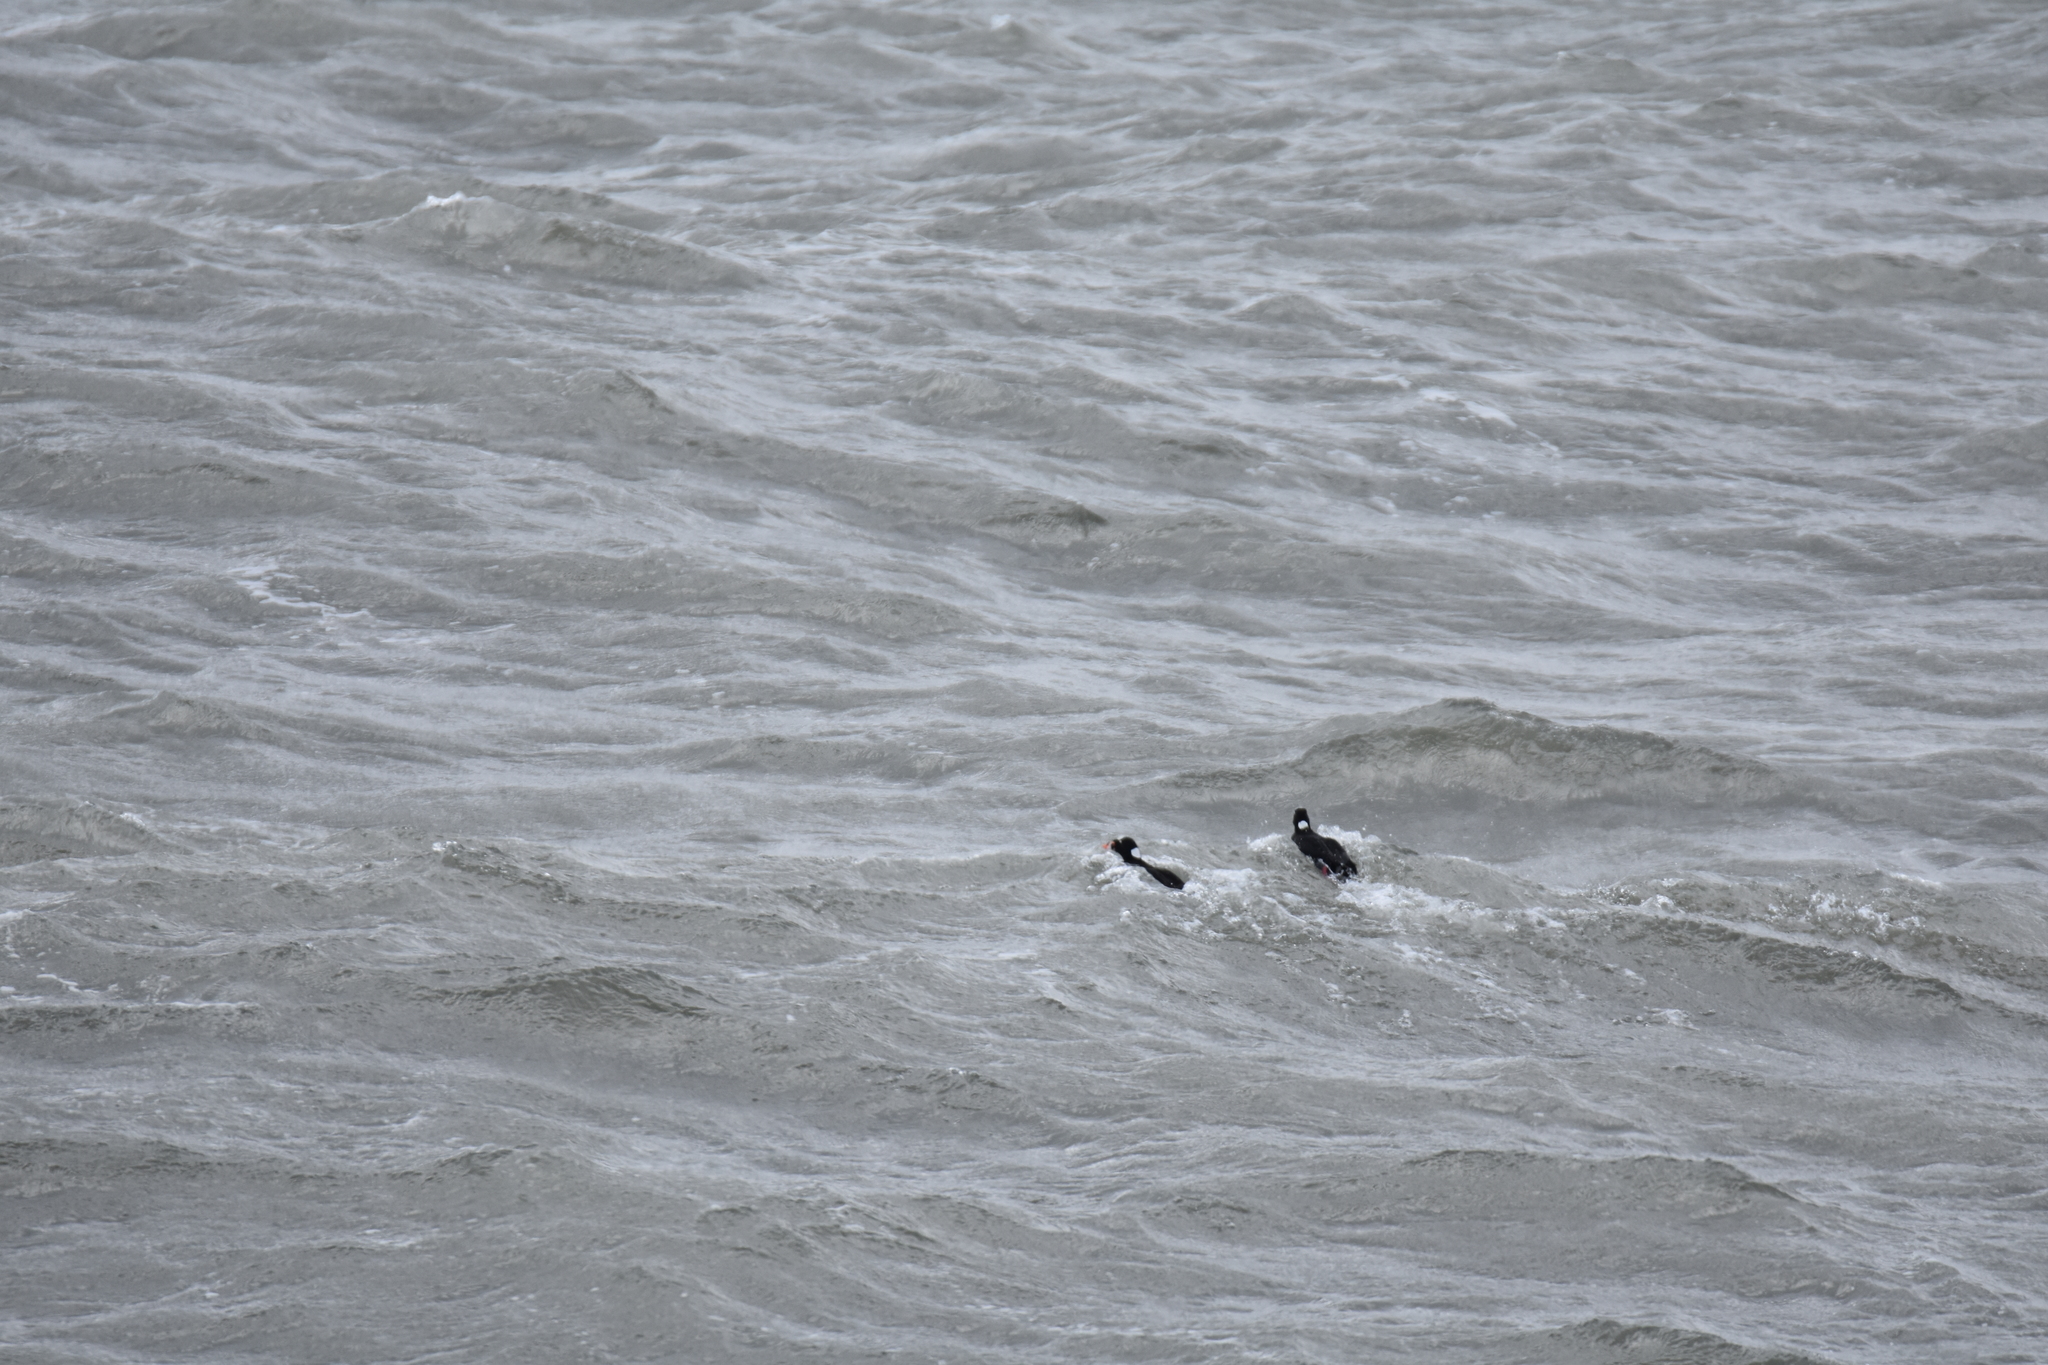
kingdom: Animalia
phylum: Chordata
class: Aves
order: Anseriformes
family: Anatidae
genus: Melanitta
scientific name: Melanitta perspicillata
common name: Surf scoter
